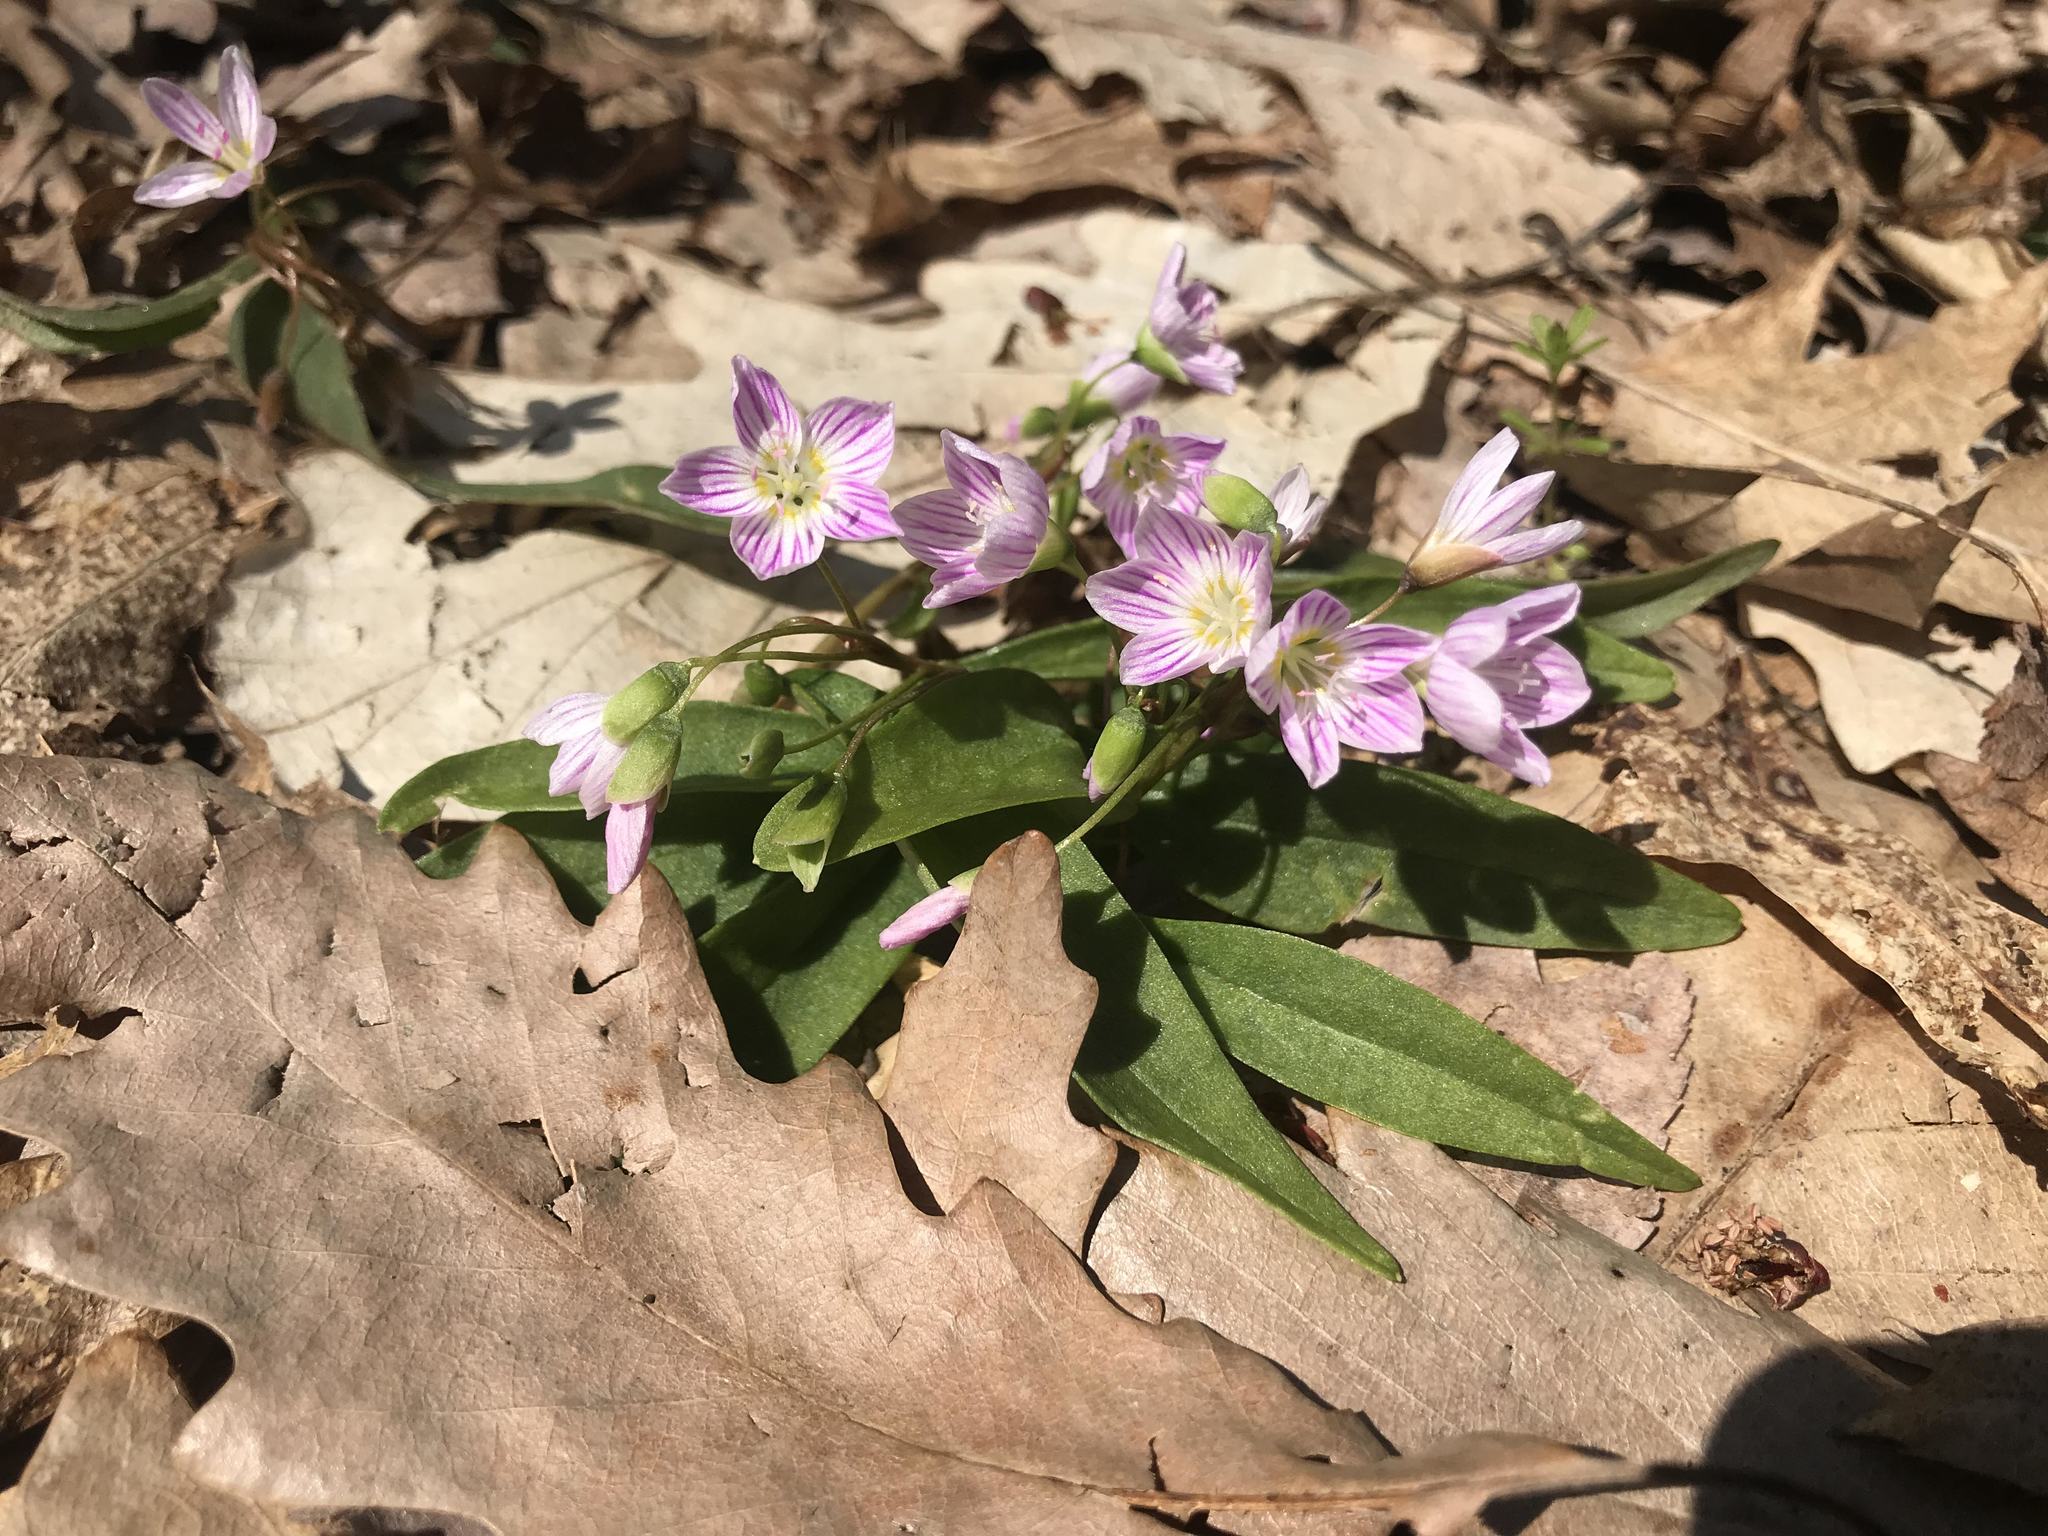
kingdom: Plantae
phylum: Tracheophyta
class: Magnoliopsida
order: Caryophyllales
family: Montiaceae
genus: Claytonia
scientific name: Claytonia caroliniana
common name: Carolina spring beauty
